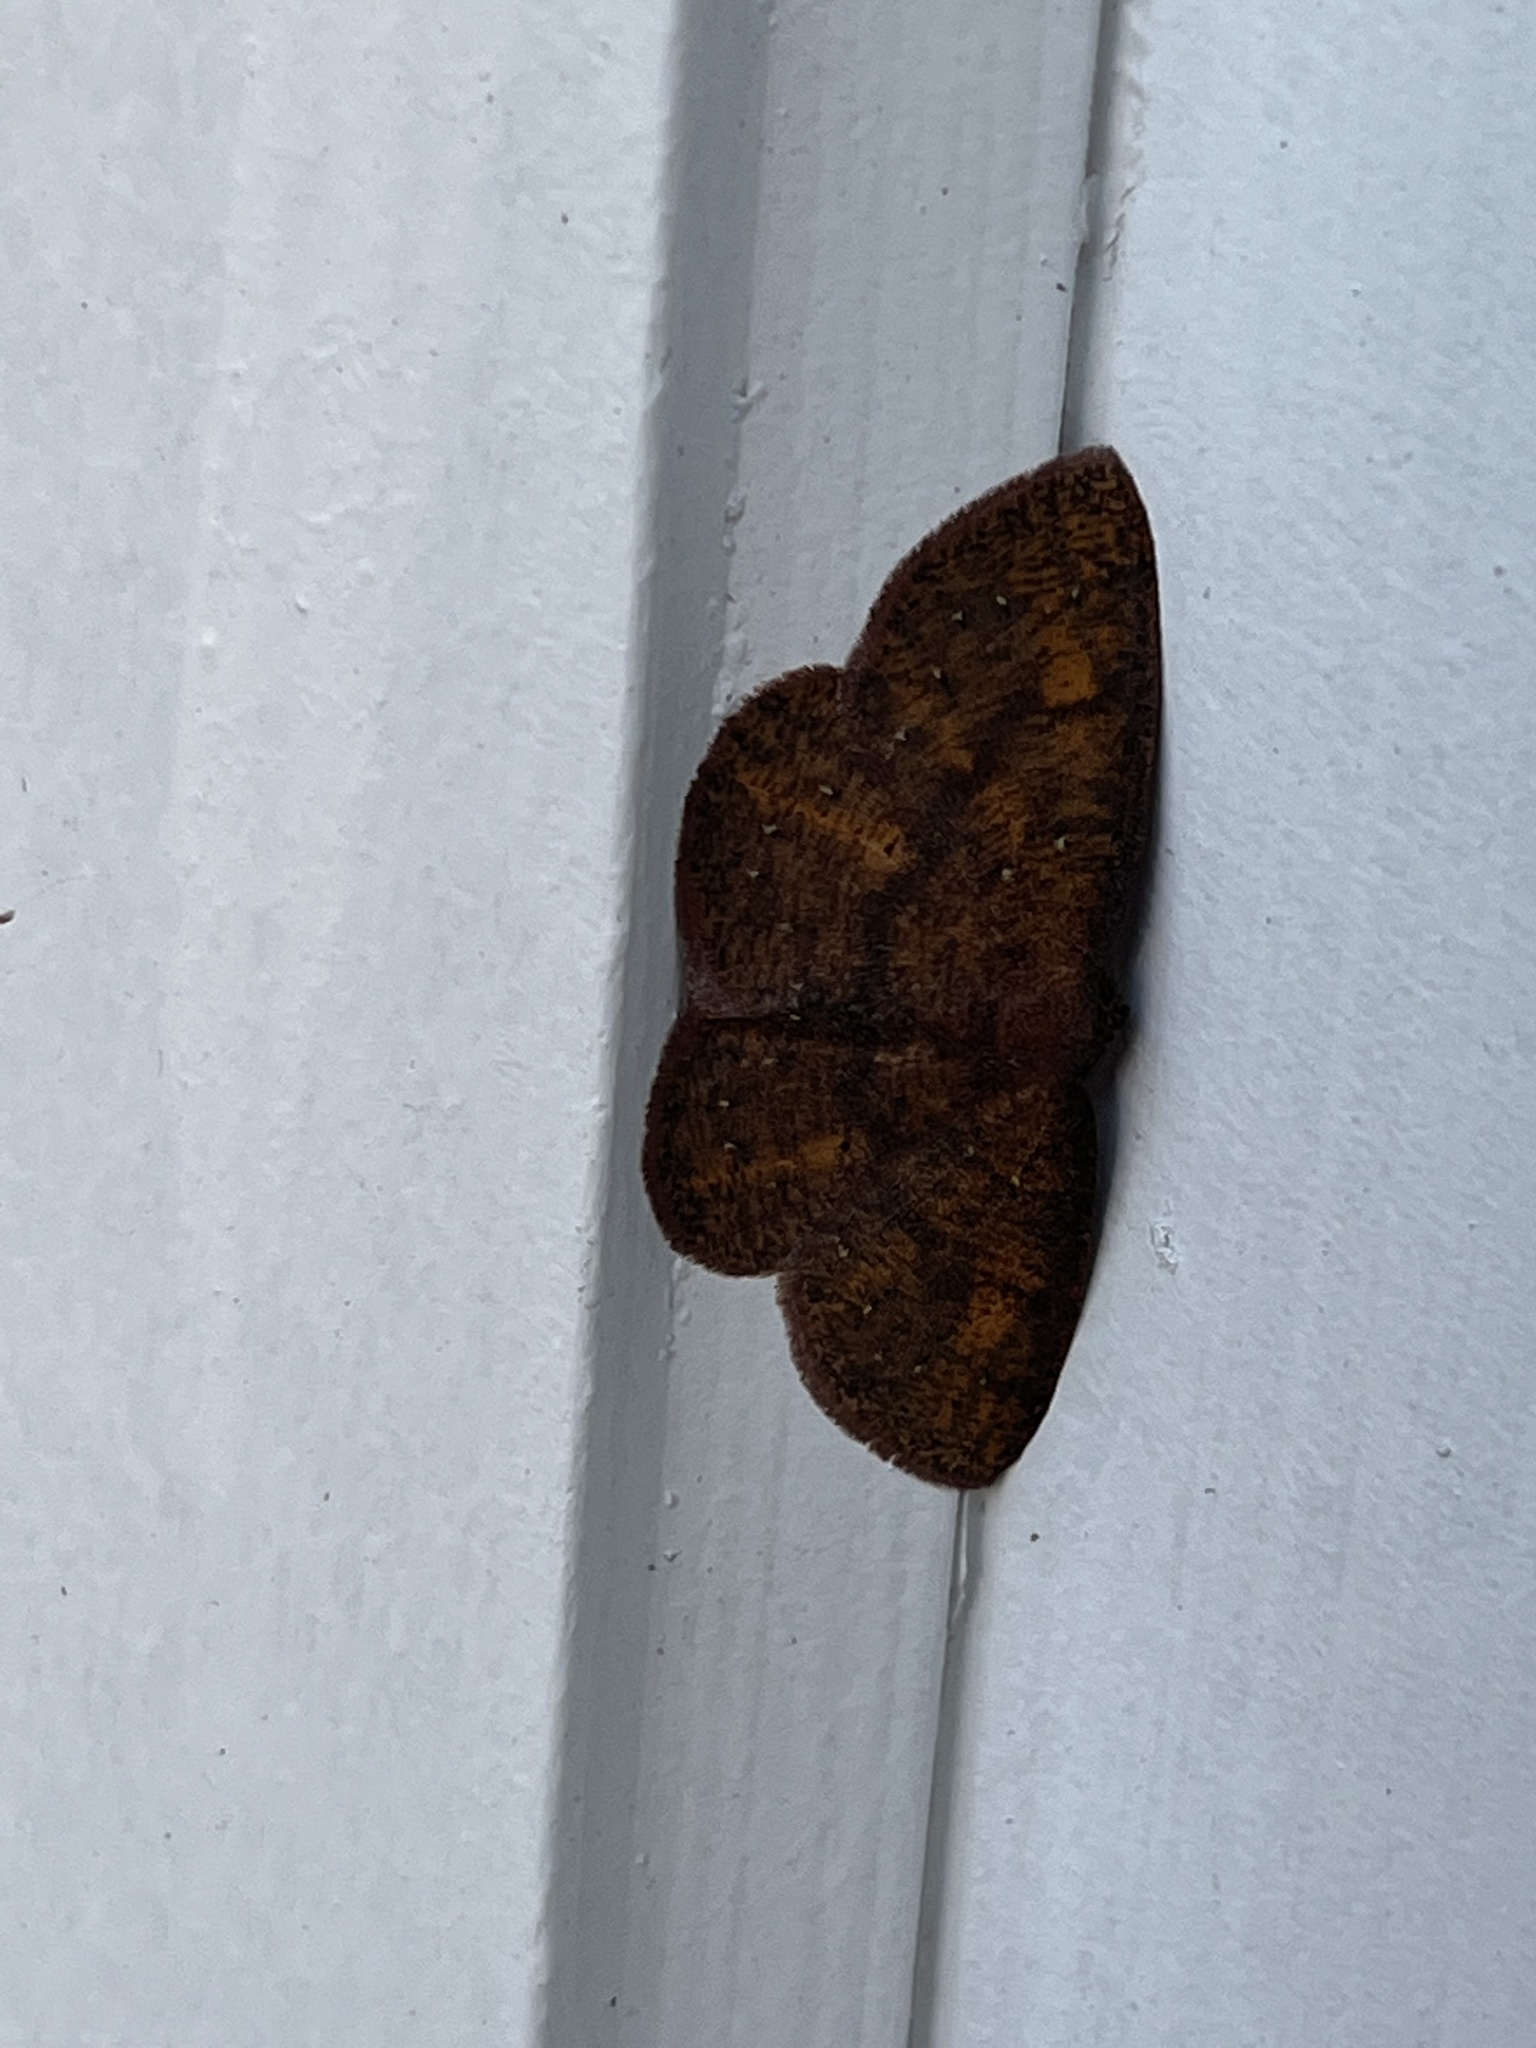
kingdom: Animalia
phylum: Arthropoda
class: Insecta
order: Lepidoptera
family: Geometridae
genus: Ilexia
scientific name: Ilexia intractata
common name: Black-dotted ruddy moth
